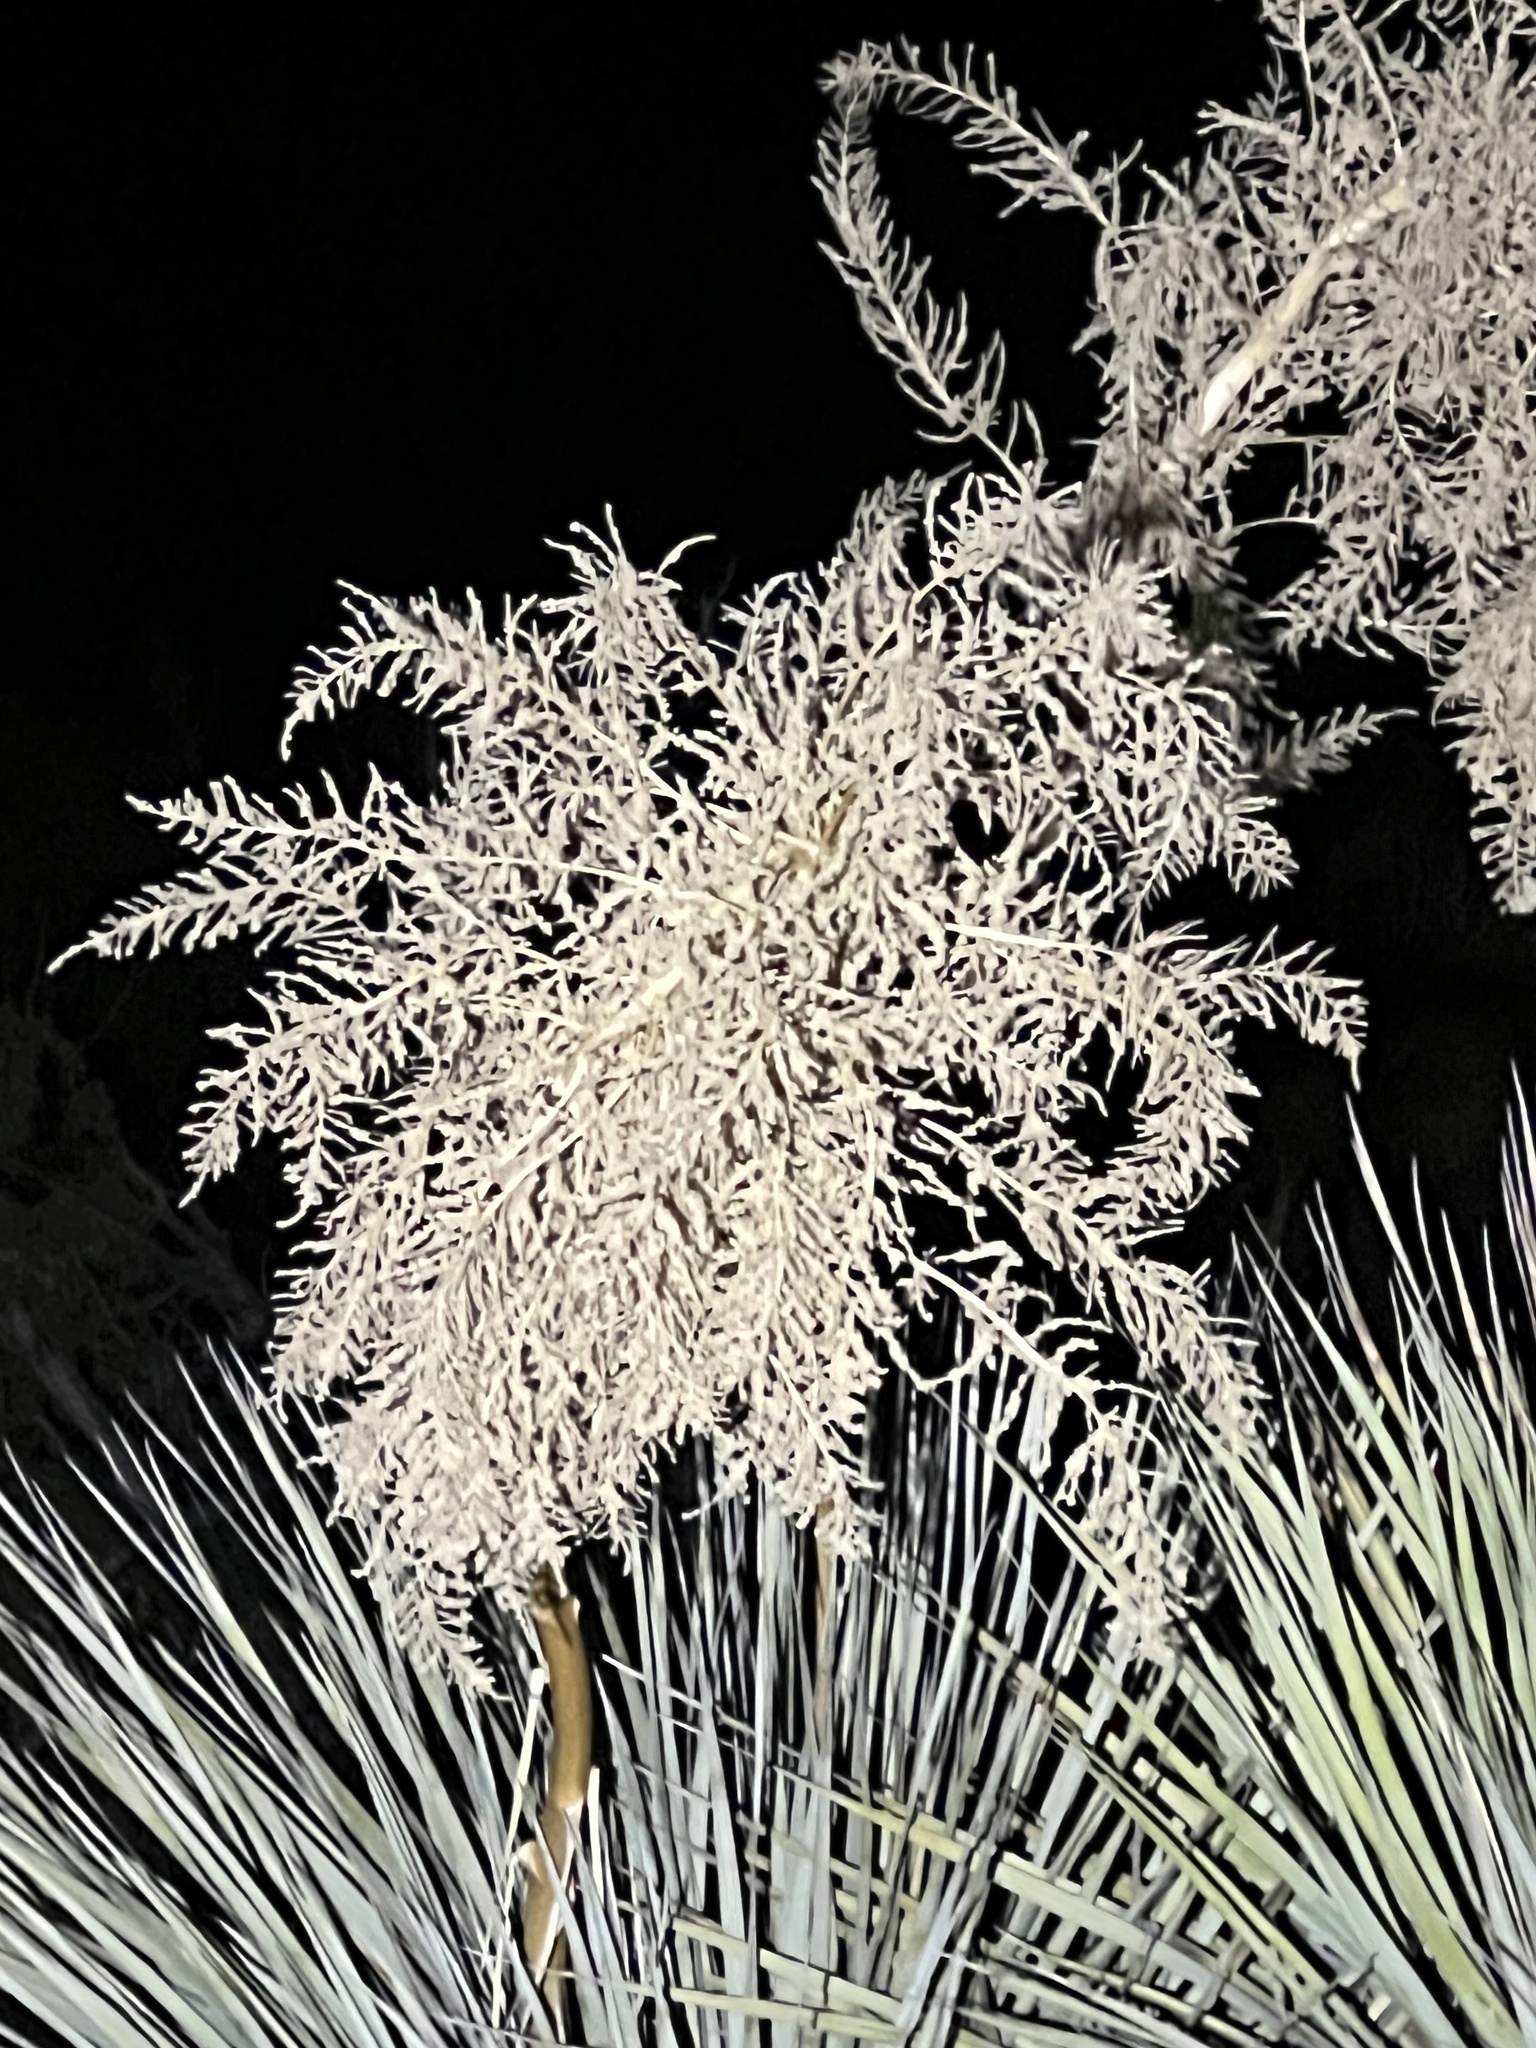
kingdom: Plantae
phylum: Tracheophyta
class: Liliopsida
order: Asparagales
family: Asparagaceae
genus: Nolina
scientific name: Nolina bigelovii
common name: Bigelow bear-grass
